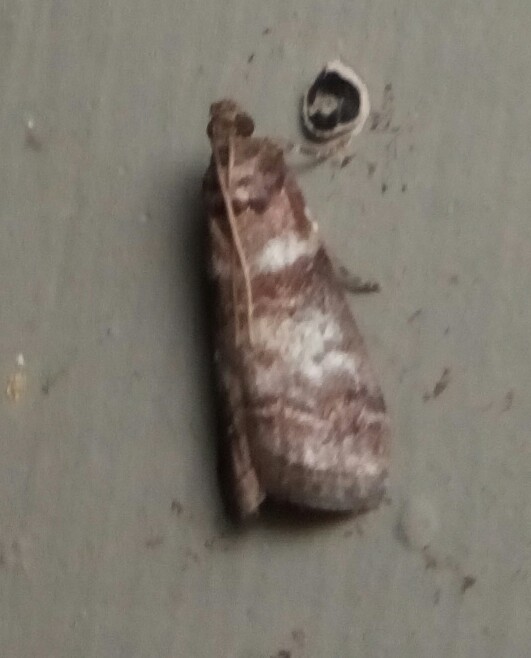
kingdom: Animalia
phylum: Arthropoda
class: Insecta
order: Lepidoptera
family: Pyralidae
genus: Sciota
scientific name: Sciota uvinella
